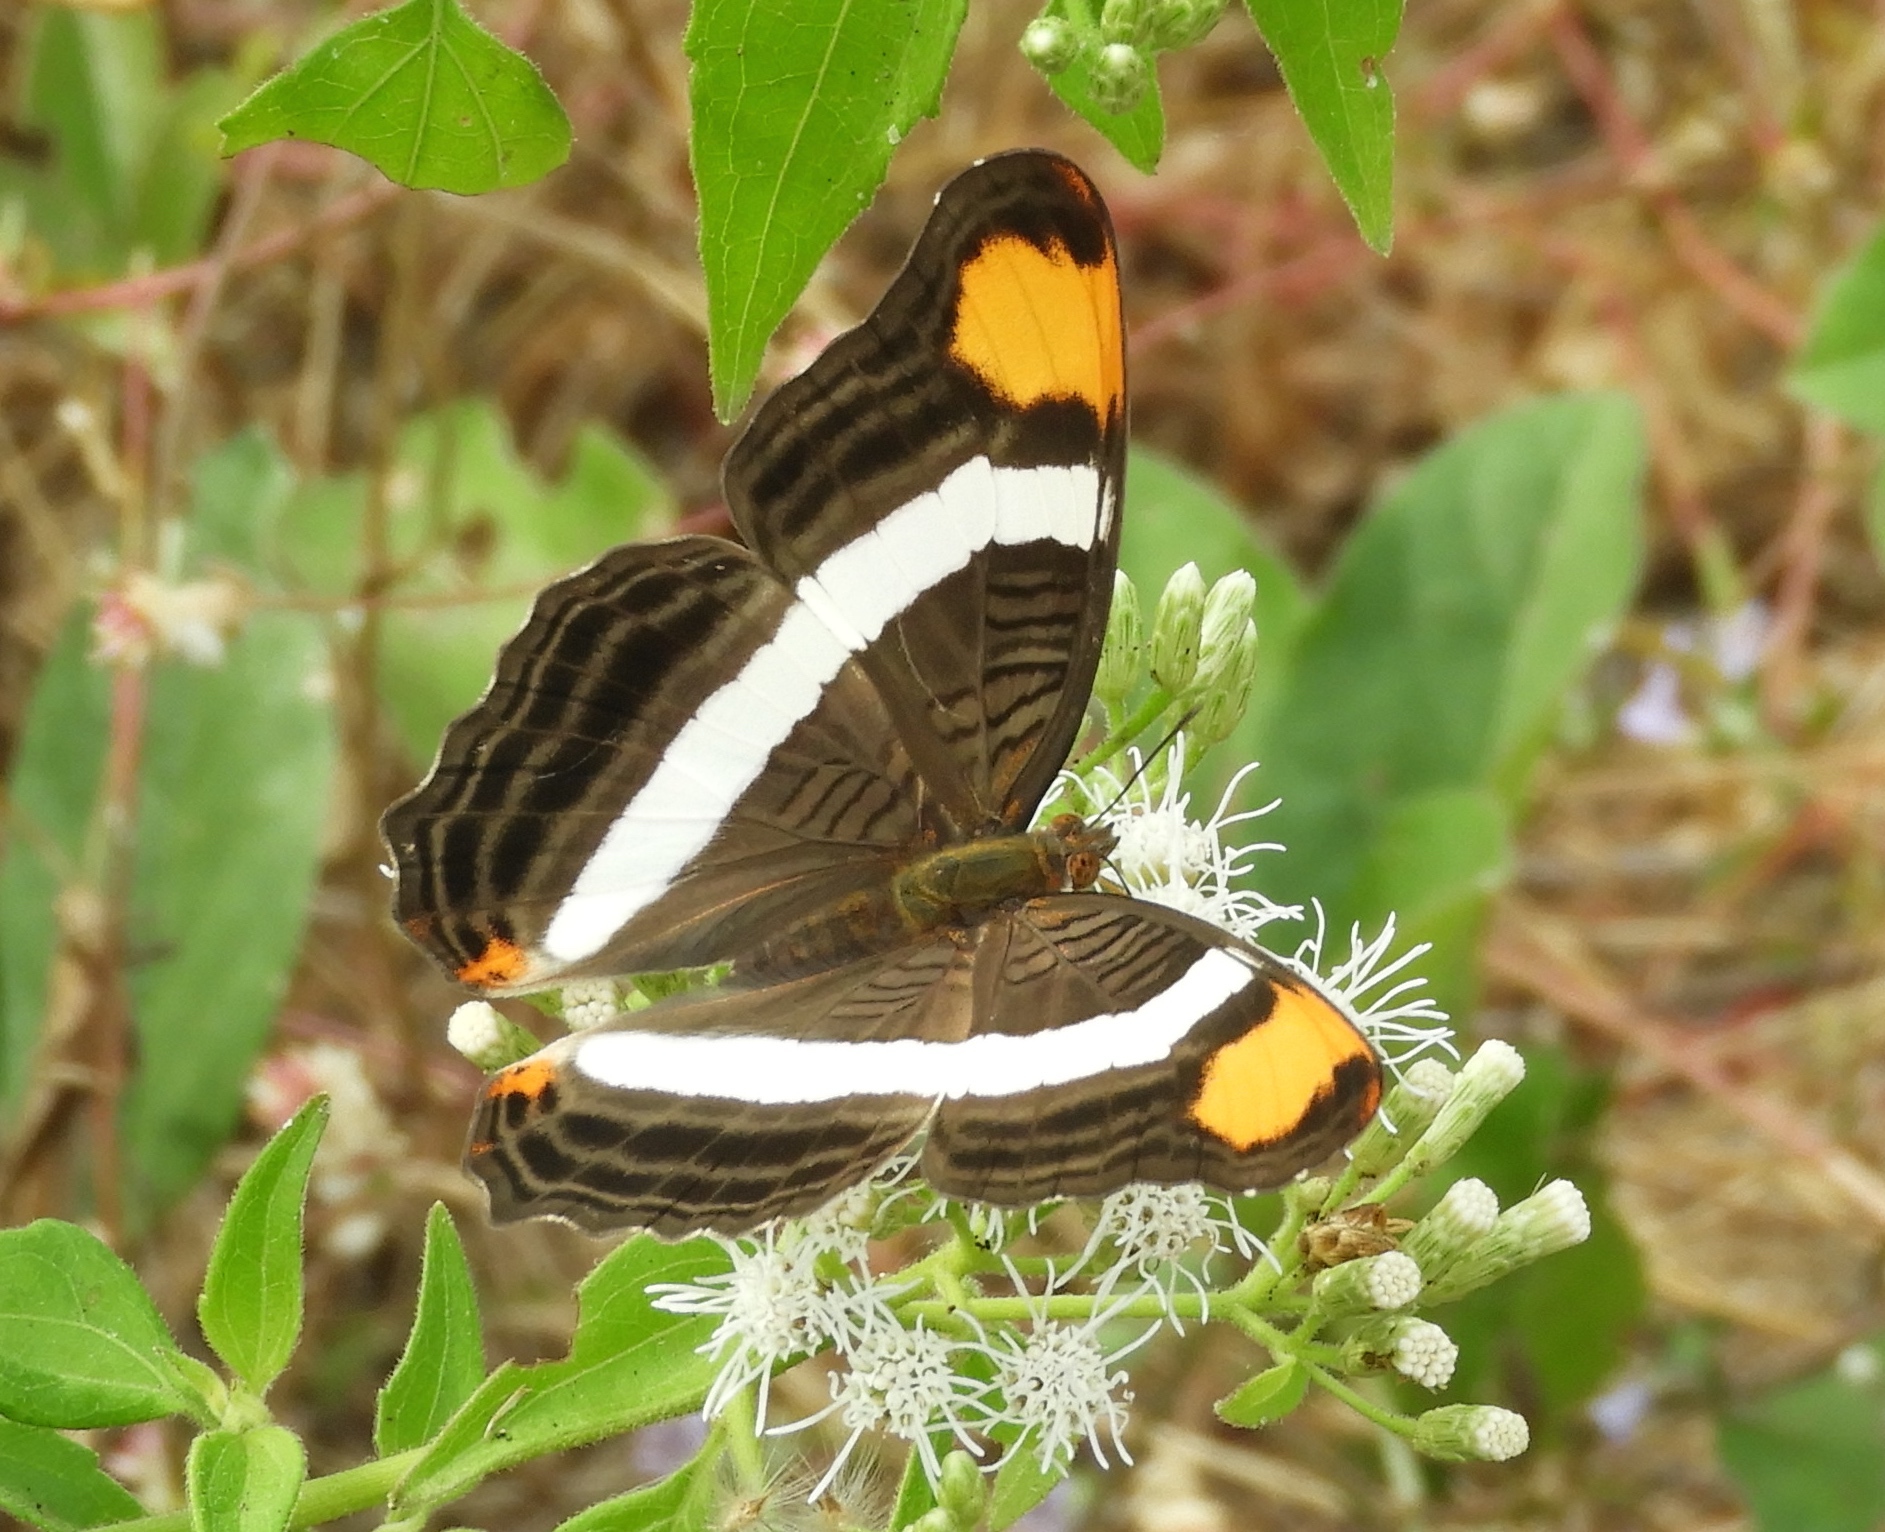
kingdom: Animalia
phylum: Arthropoda
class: Insecta
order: Lepidoptera
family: Nymphalidae
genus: Limenitis
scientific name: Limenitis fessonia
